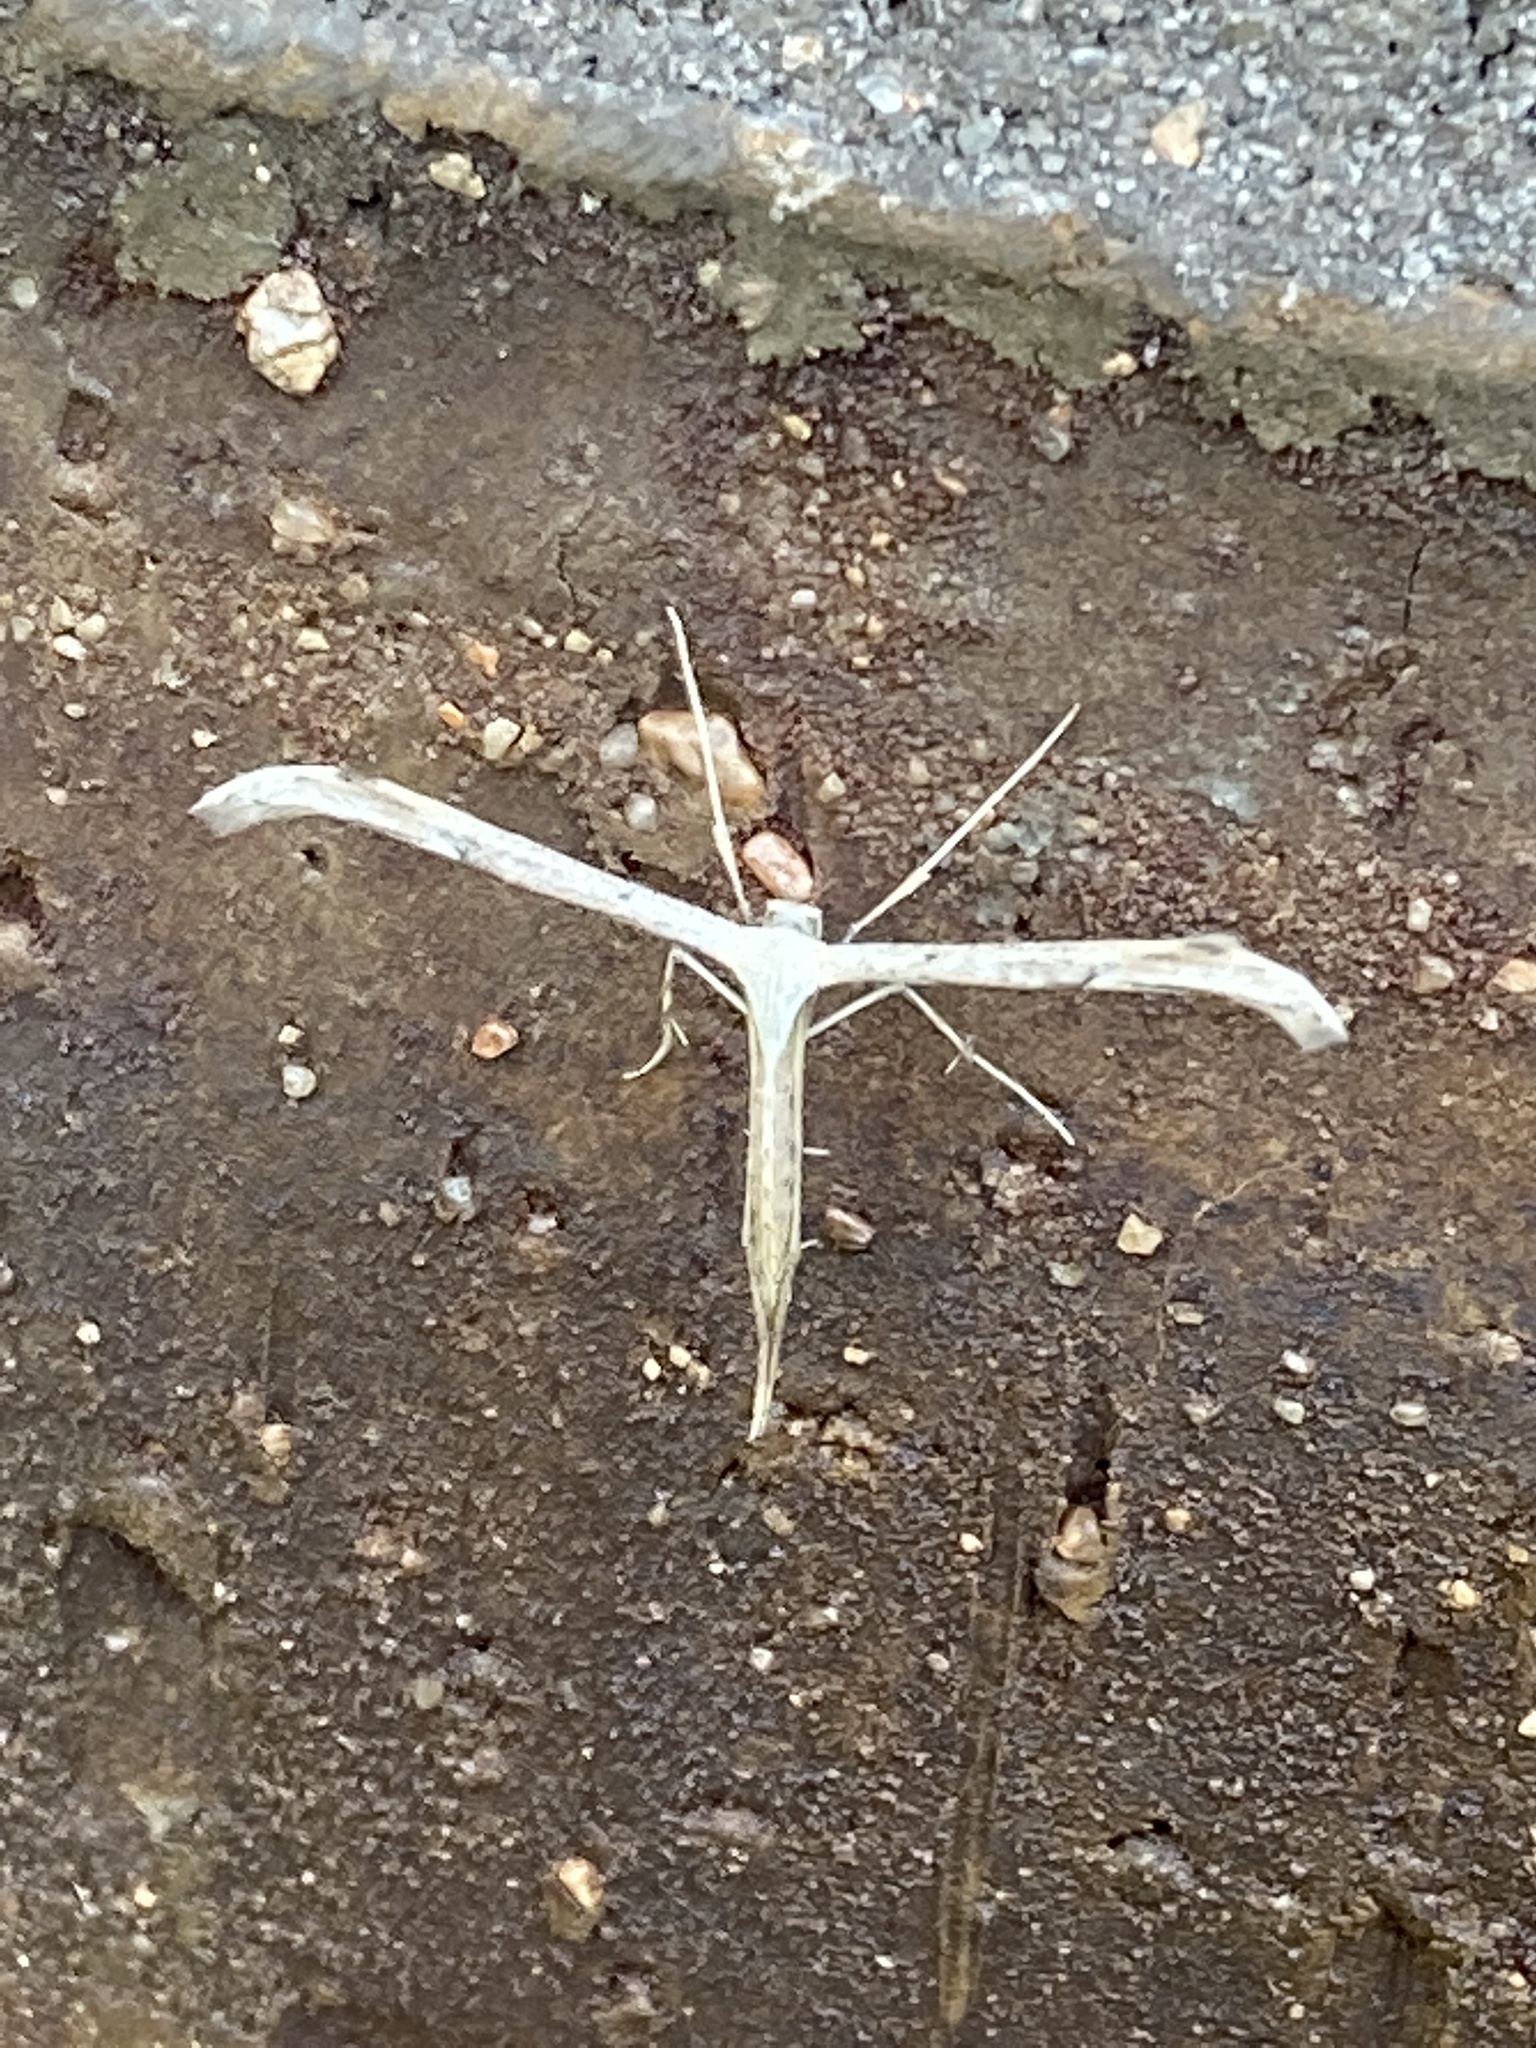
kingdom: Animalia
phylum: Arthropoda
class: Insecta
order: Lepidoptera
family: Pterophoridae
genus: Emmelina
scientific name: Emmelina monodactyla
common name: Common plume
